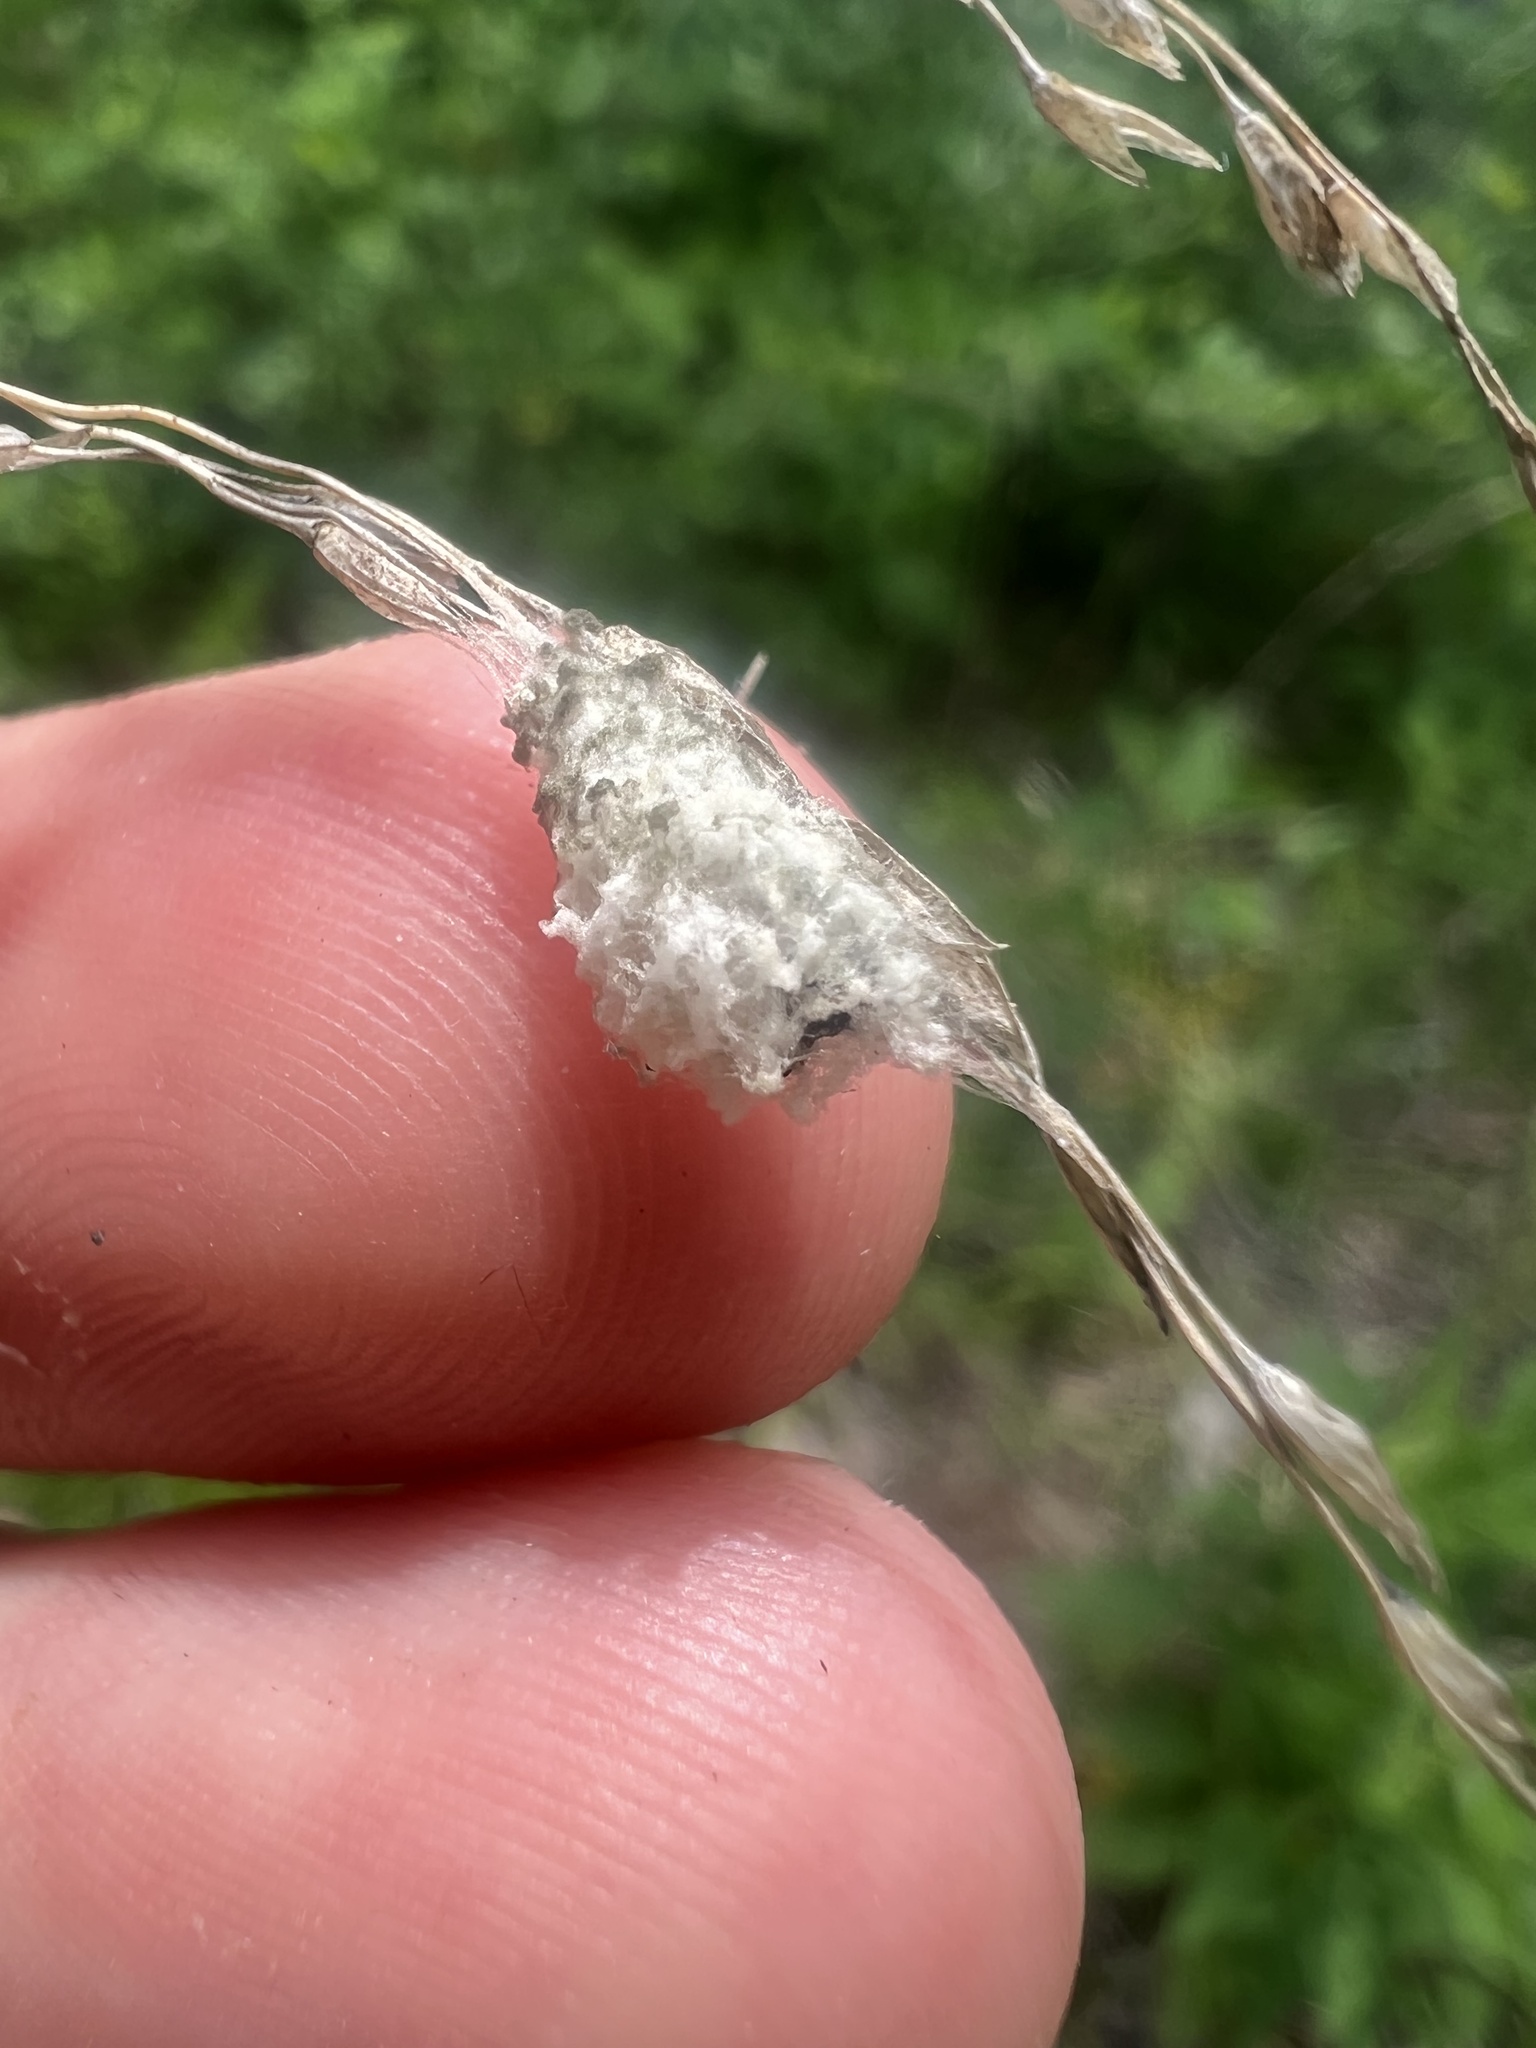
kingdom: Plantae
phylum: Tracheophyta
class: Liliopsida
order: Poales
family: Poaceae
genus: Tridens
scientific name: Tridens flavus
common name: Purpletop
